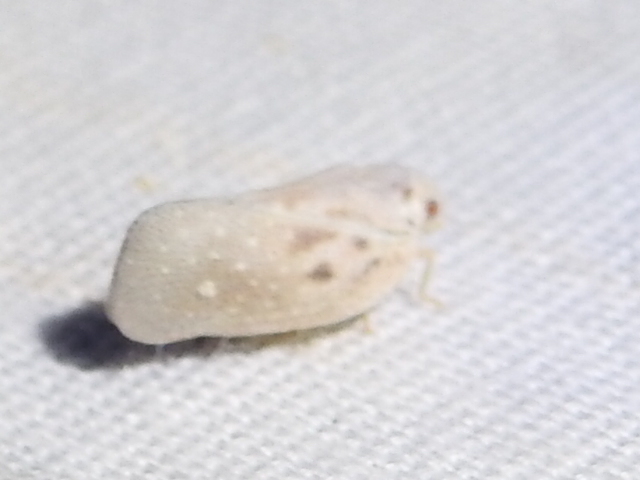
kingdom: Animalia
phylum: Arthropoda
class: Insecta
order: Hemiptera
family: Flatidae
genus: Metcalfa
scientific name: Metcalfa pruinosa
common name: Citrus flatid planthopper
